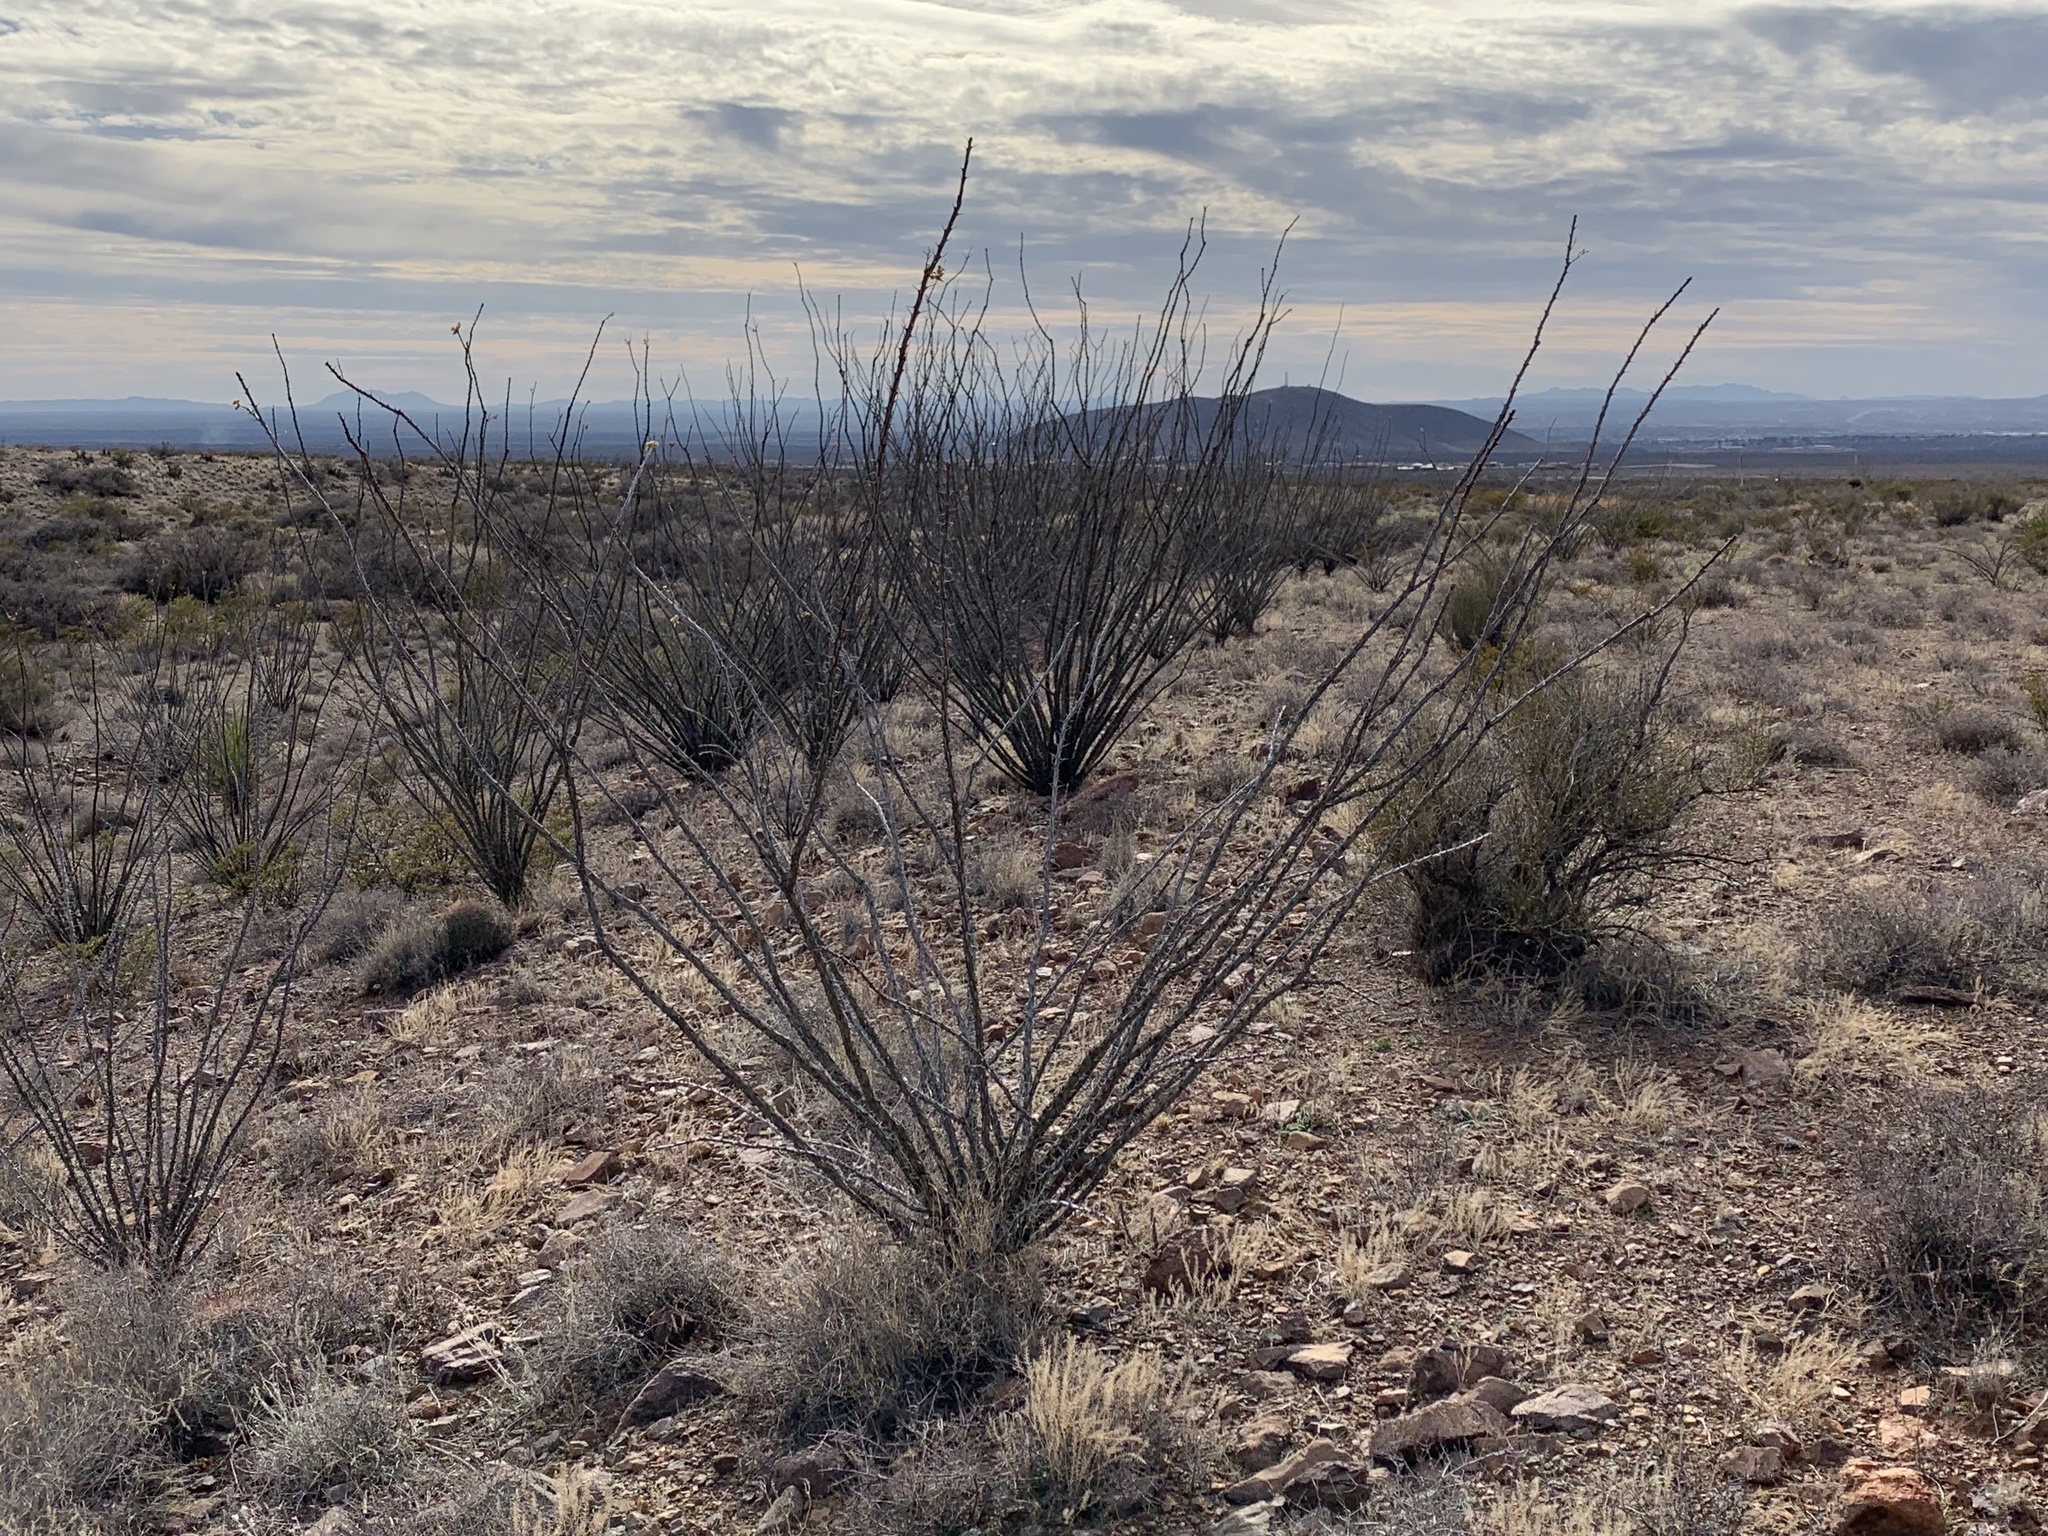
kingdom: Plantae
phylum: Tracheophyta
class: Magnoliopsida
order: Ericales
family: Fouquieriaceae
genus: Fouquieria
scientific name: Fouquieria splendens
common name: Vine-cactus
